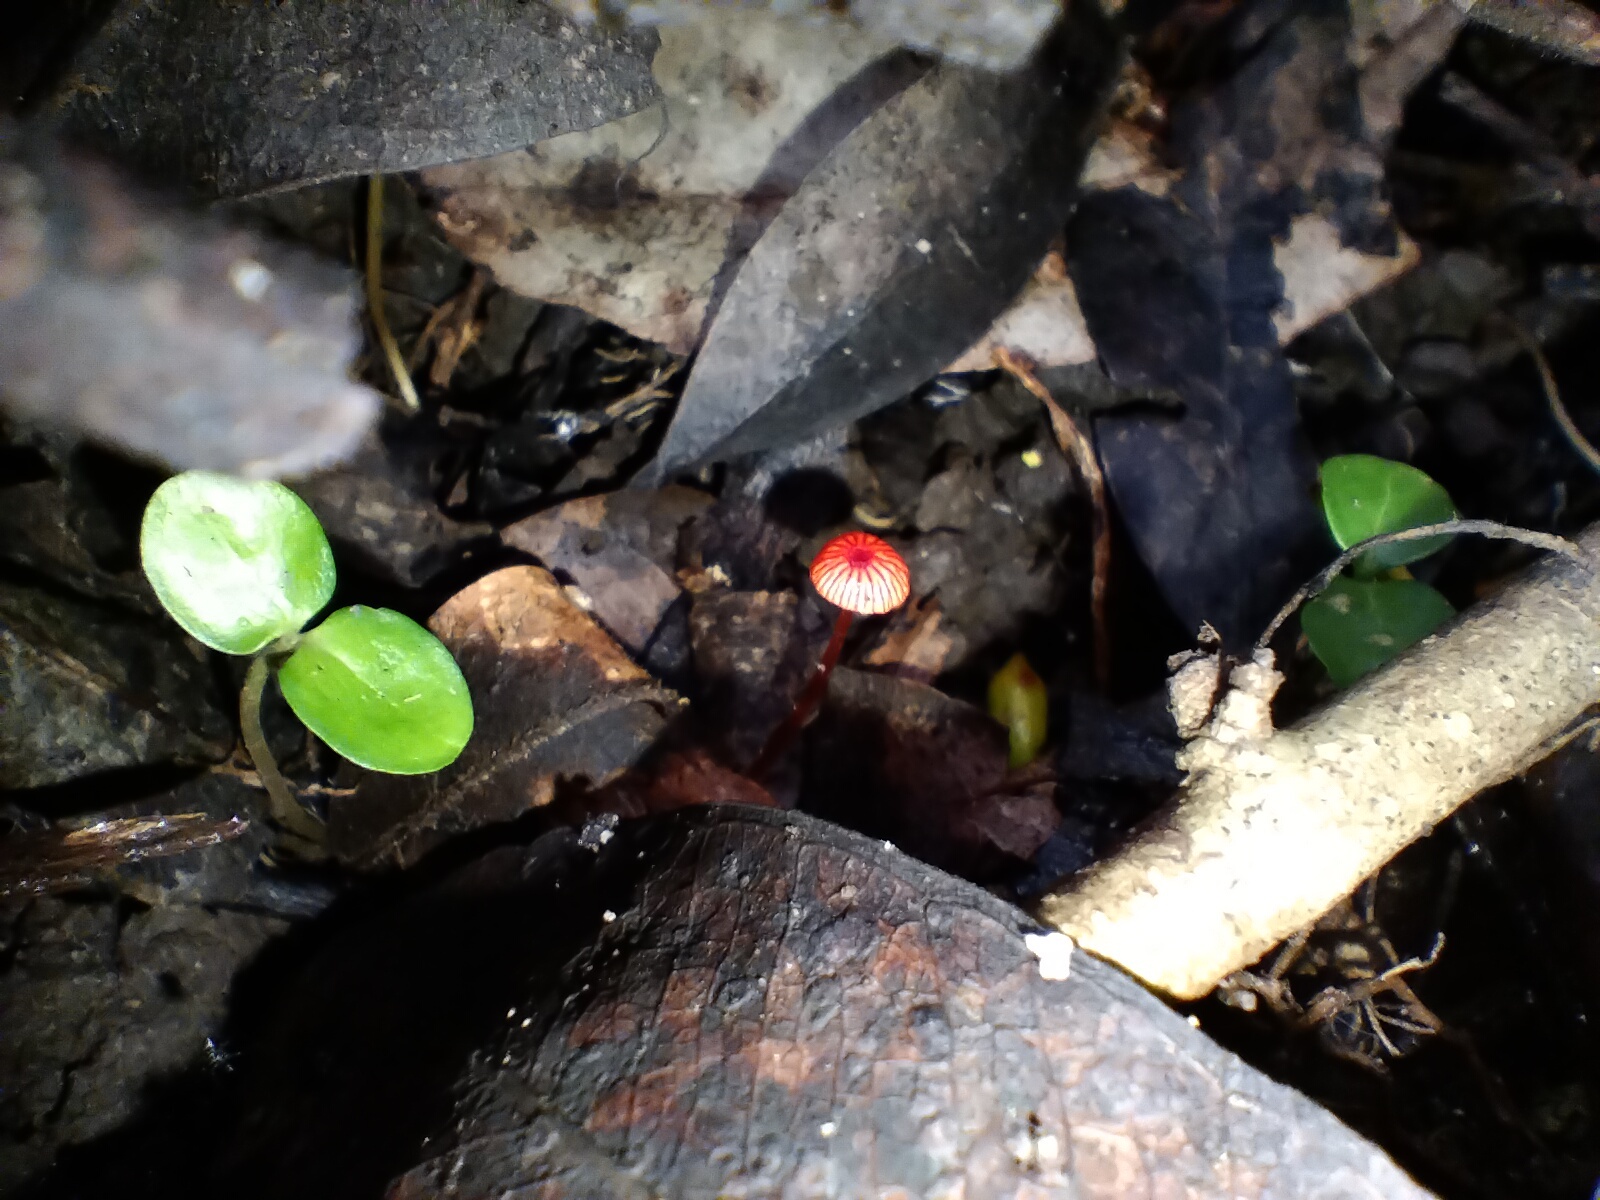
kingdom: Fungi
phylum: Basidiomycota
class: Agaricomycetes
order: Agaricales
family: Mycenaceae
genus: Cruentomycena
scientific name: Cruentomycena viscidocruenta
